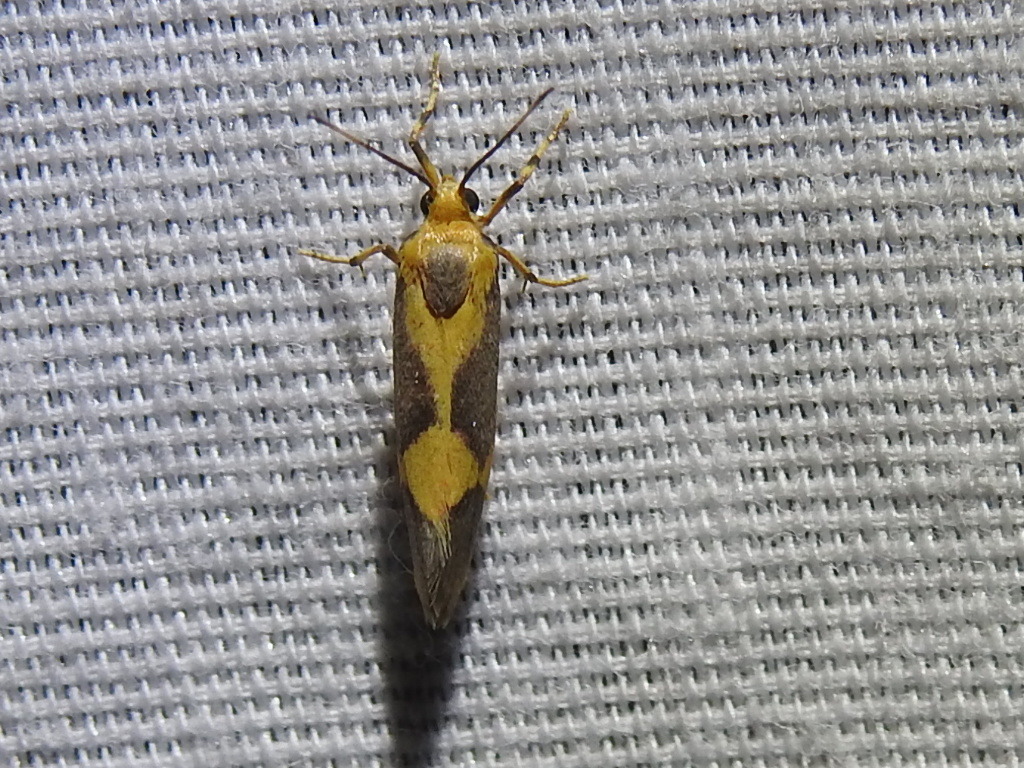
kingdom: Animalia
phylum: Arthropoda
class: Insecta
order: Lepidoptera
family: Erebidae
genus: Cisthene
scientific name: Cisthene unifascia
